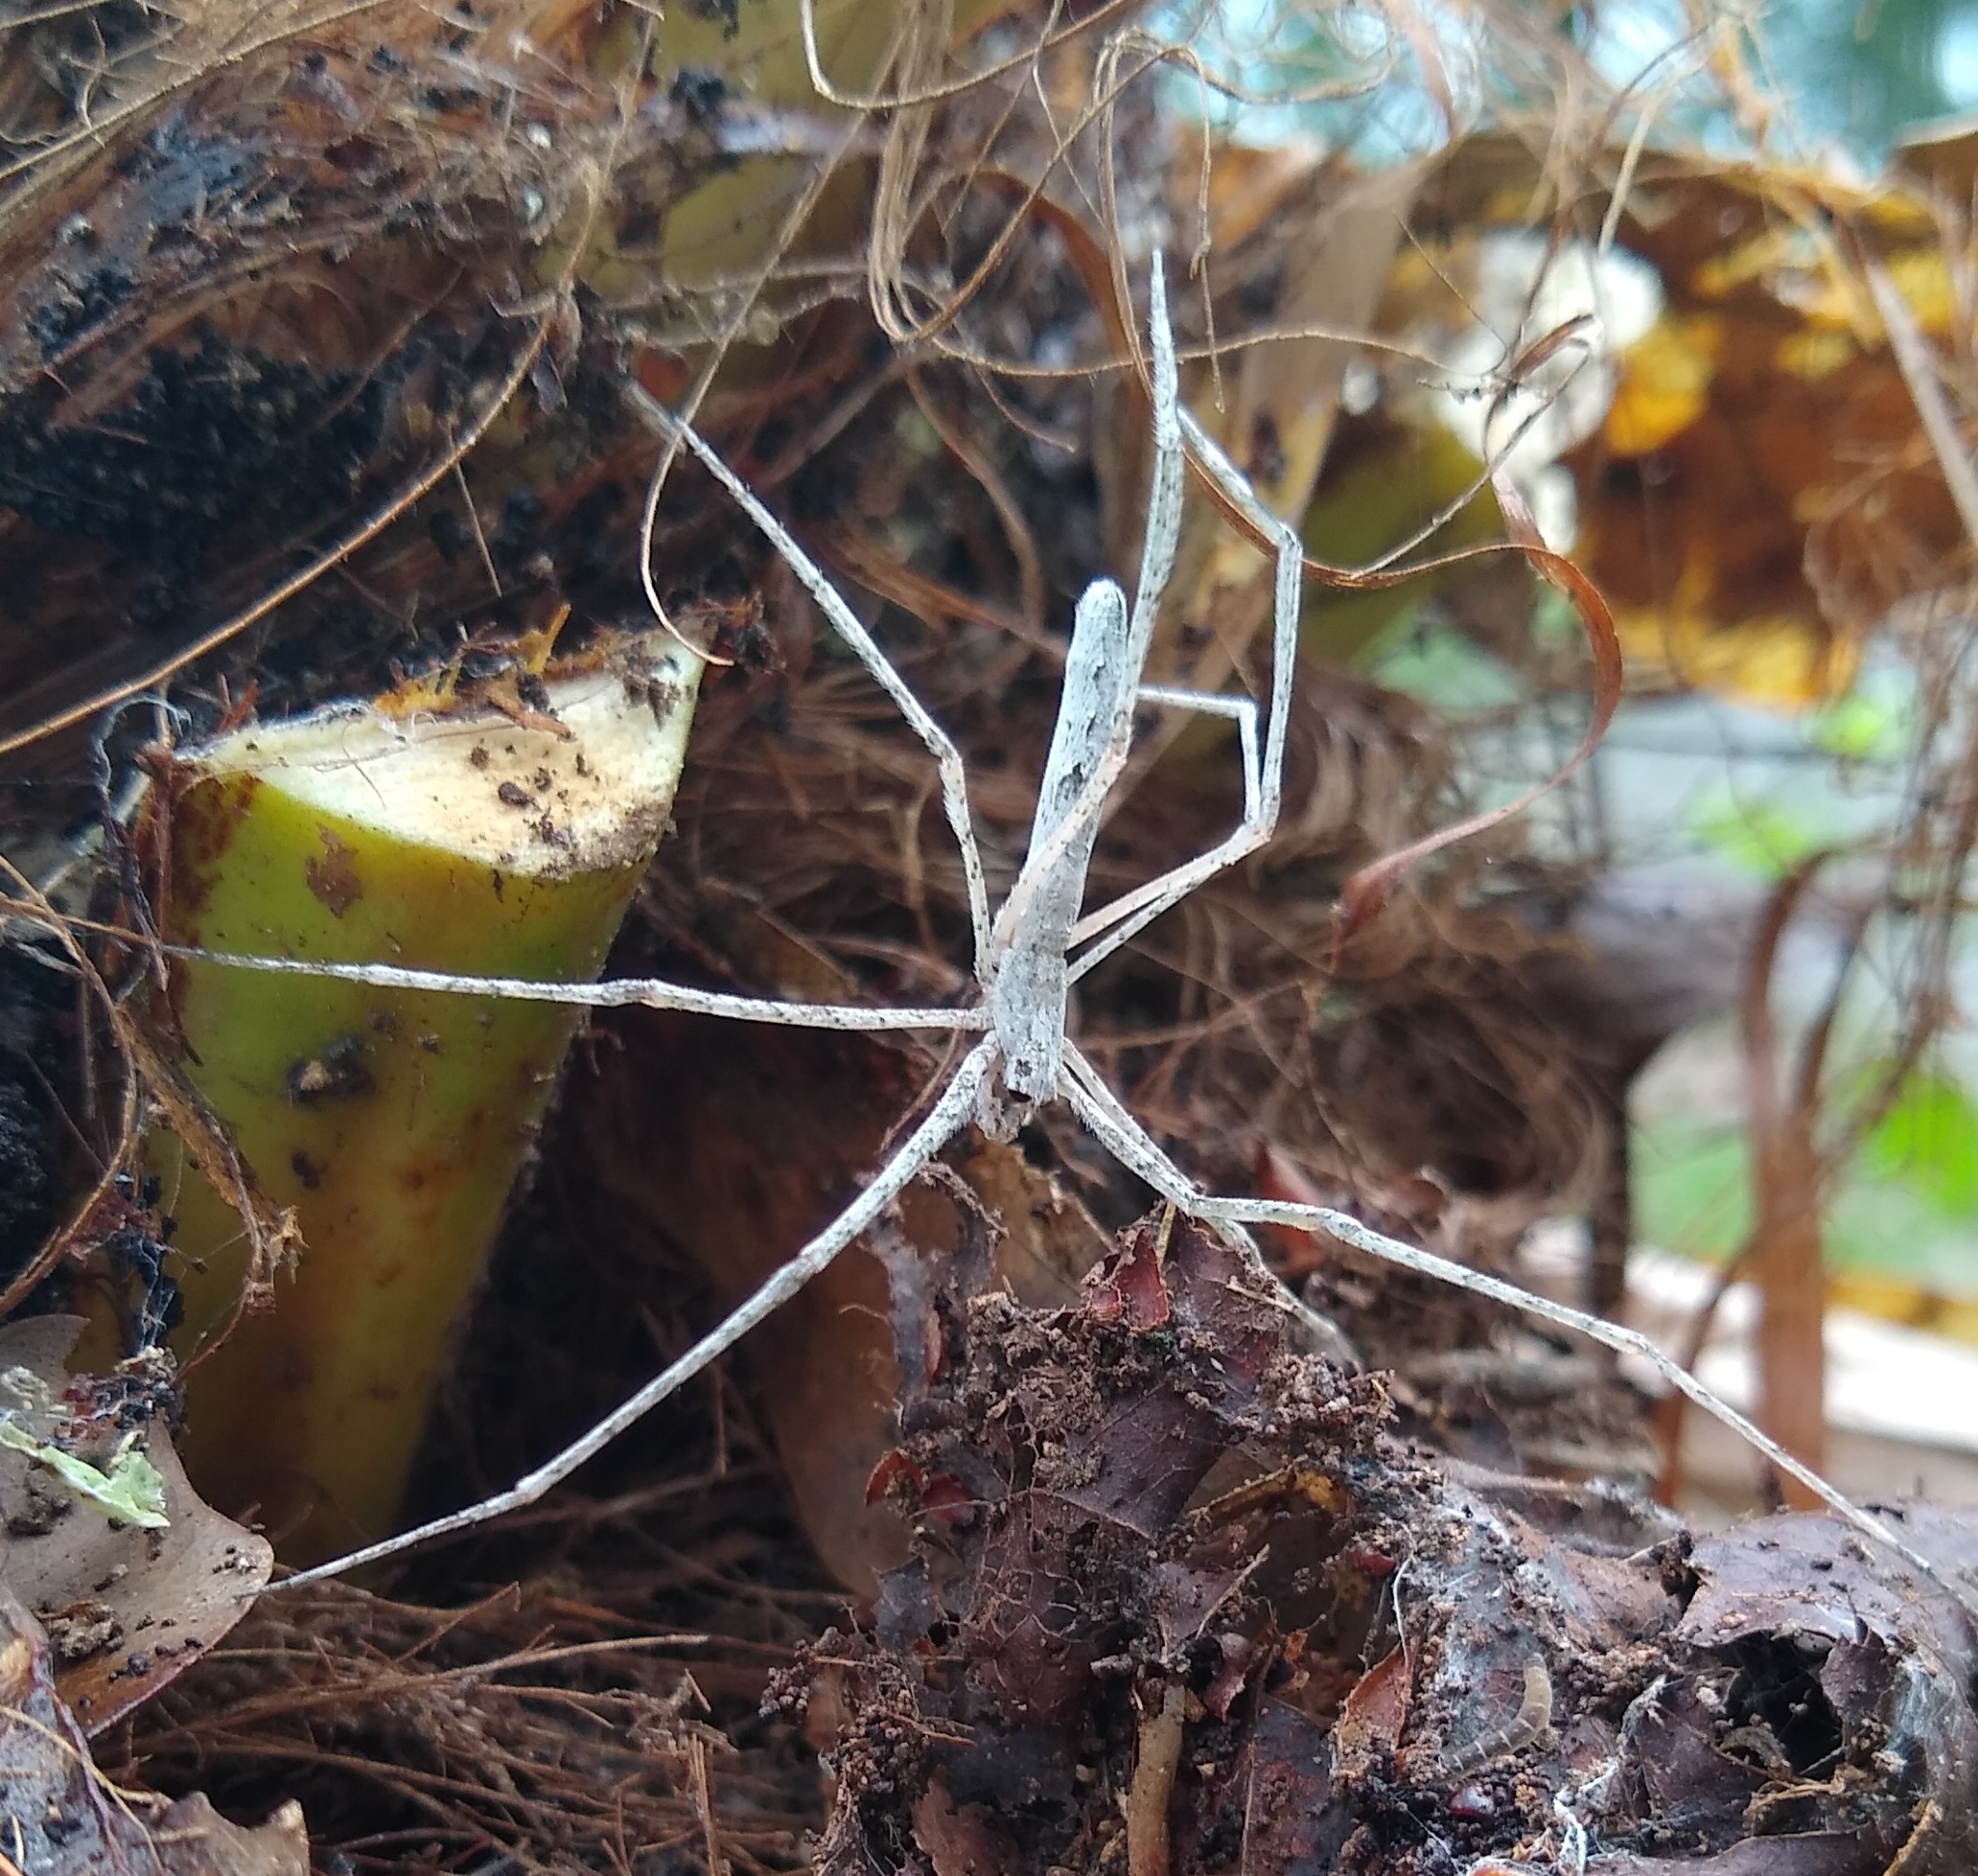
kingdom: Animalia
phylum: Arthropoda
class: Arachnida
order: Araneae
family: Deinopidae
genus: Deinopis
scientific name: Deinopis spinosa
